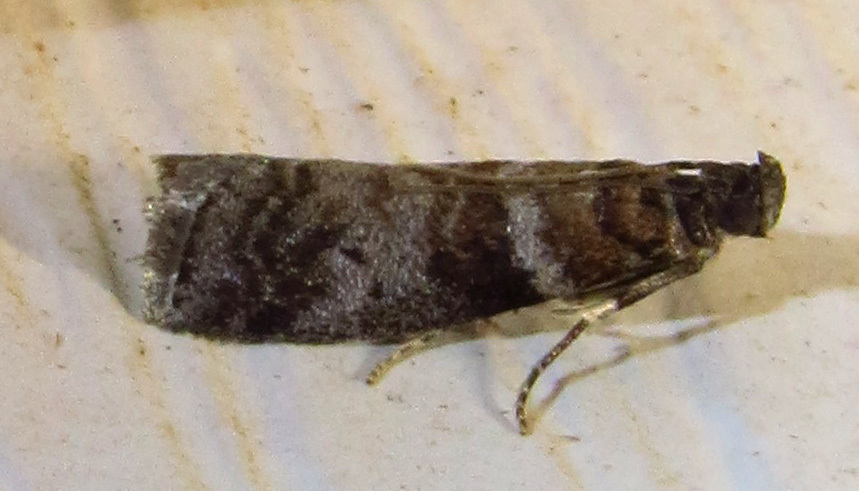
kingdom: Animalia
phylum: Arthropoda
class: Insecta
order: Lepidoptera
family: Pyralidae
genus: Sciota
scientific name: Sciota uvinella
